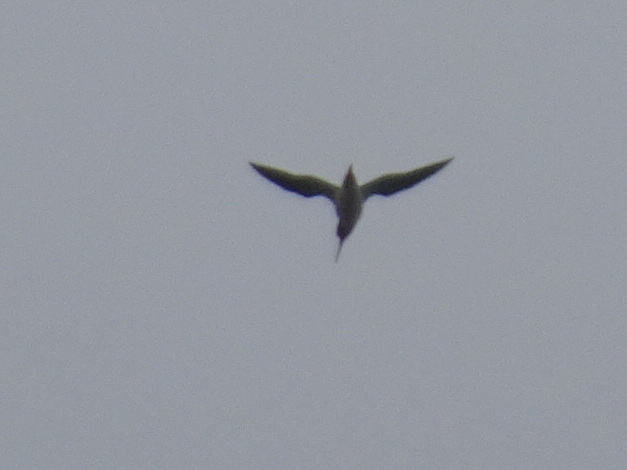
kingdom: Animalia
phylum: Chordata
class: Aves
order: Charadriiformes
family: Scolopacidae
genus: Tringa
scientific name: Tringa melanoleuca
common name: Greater yellowlegs
